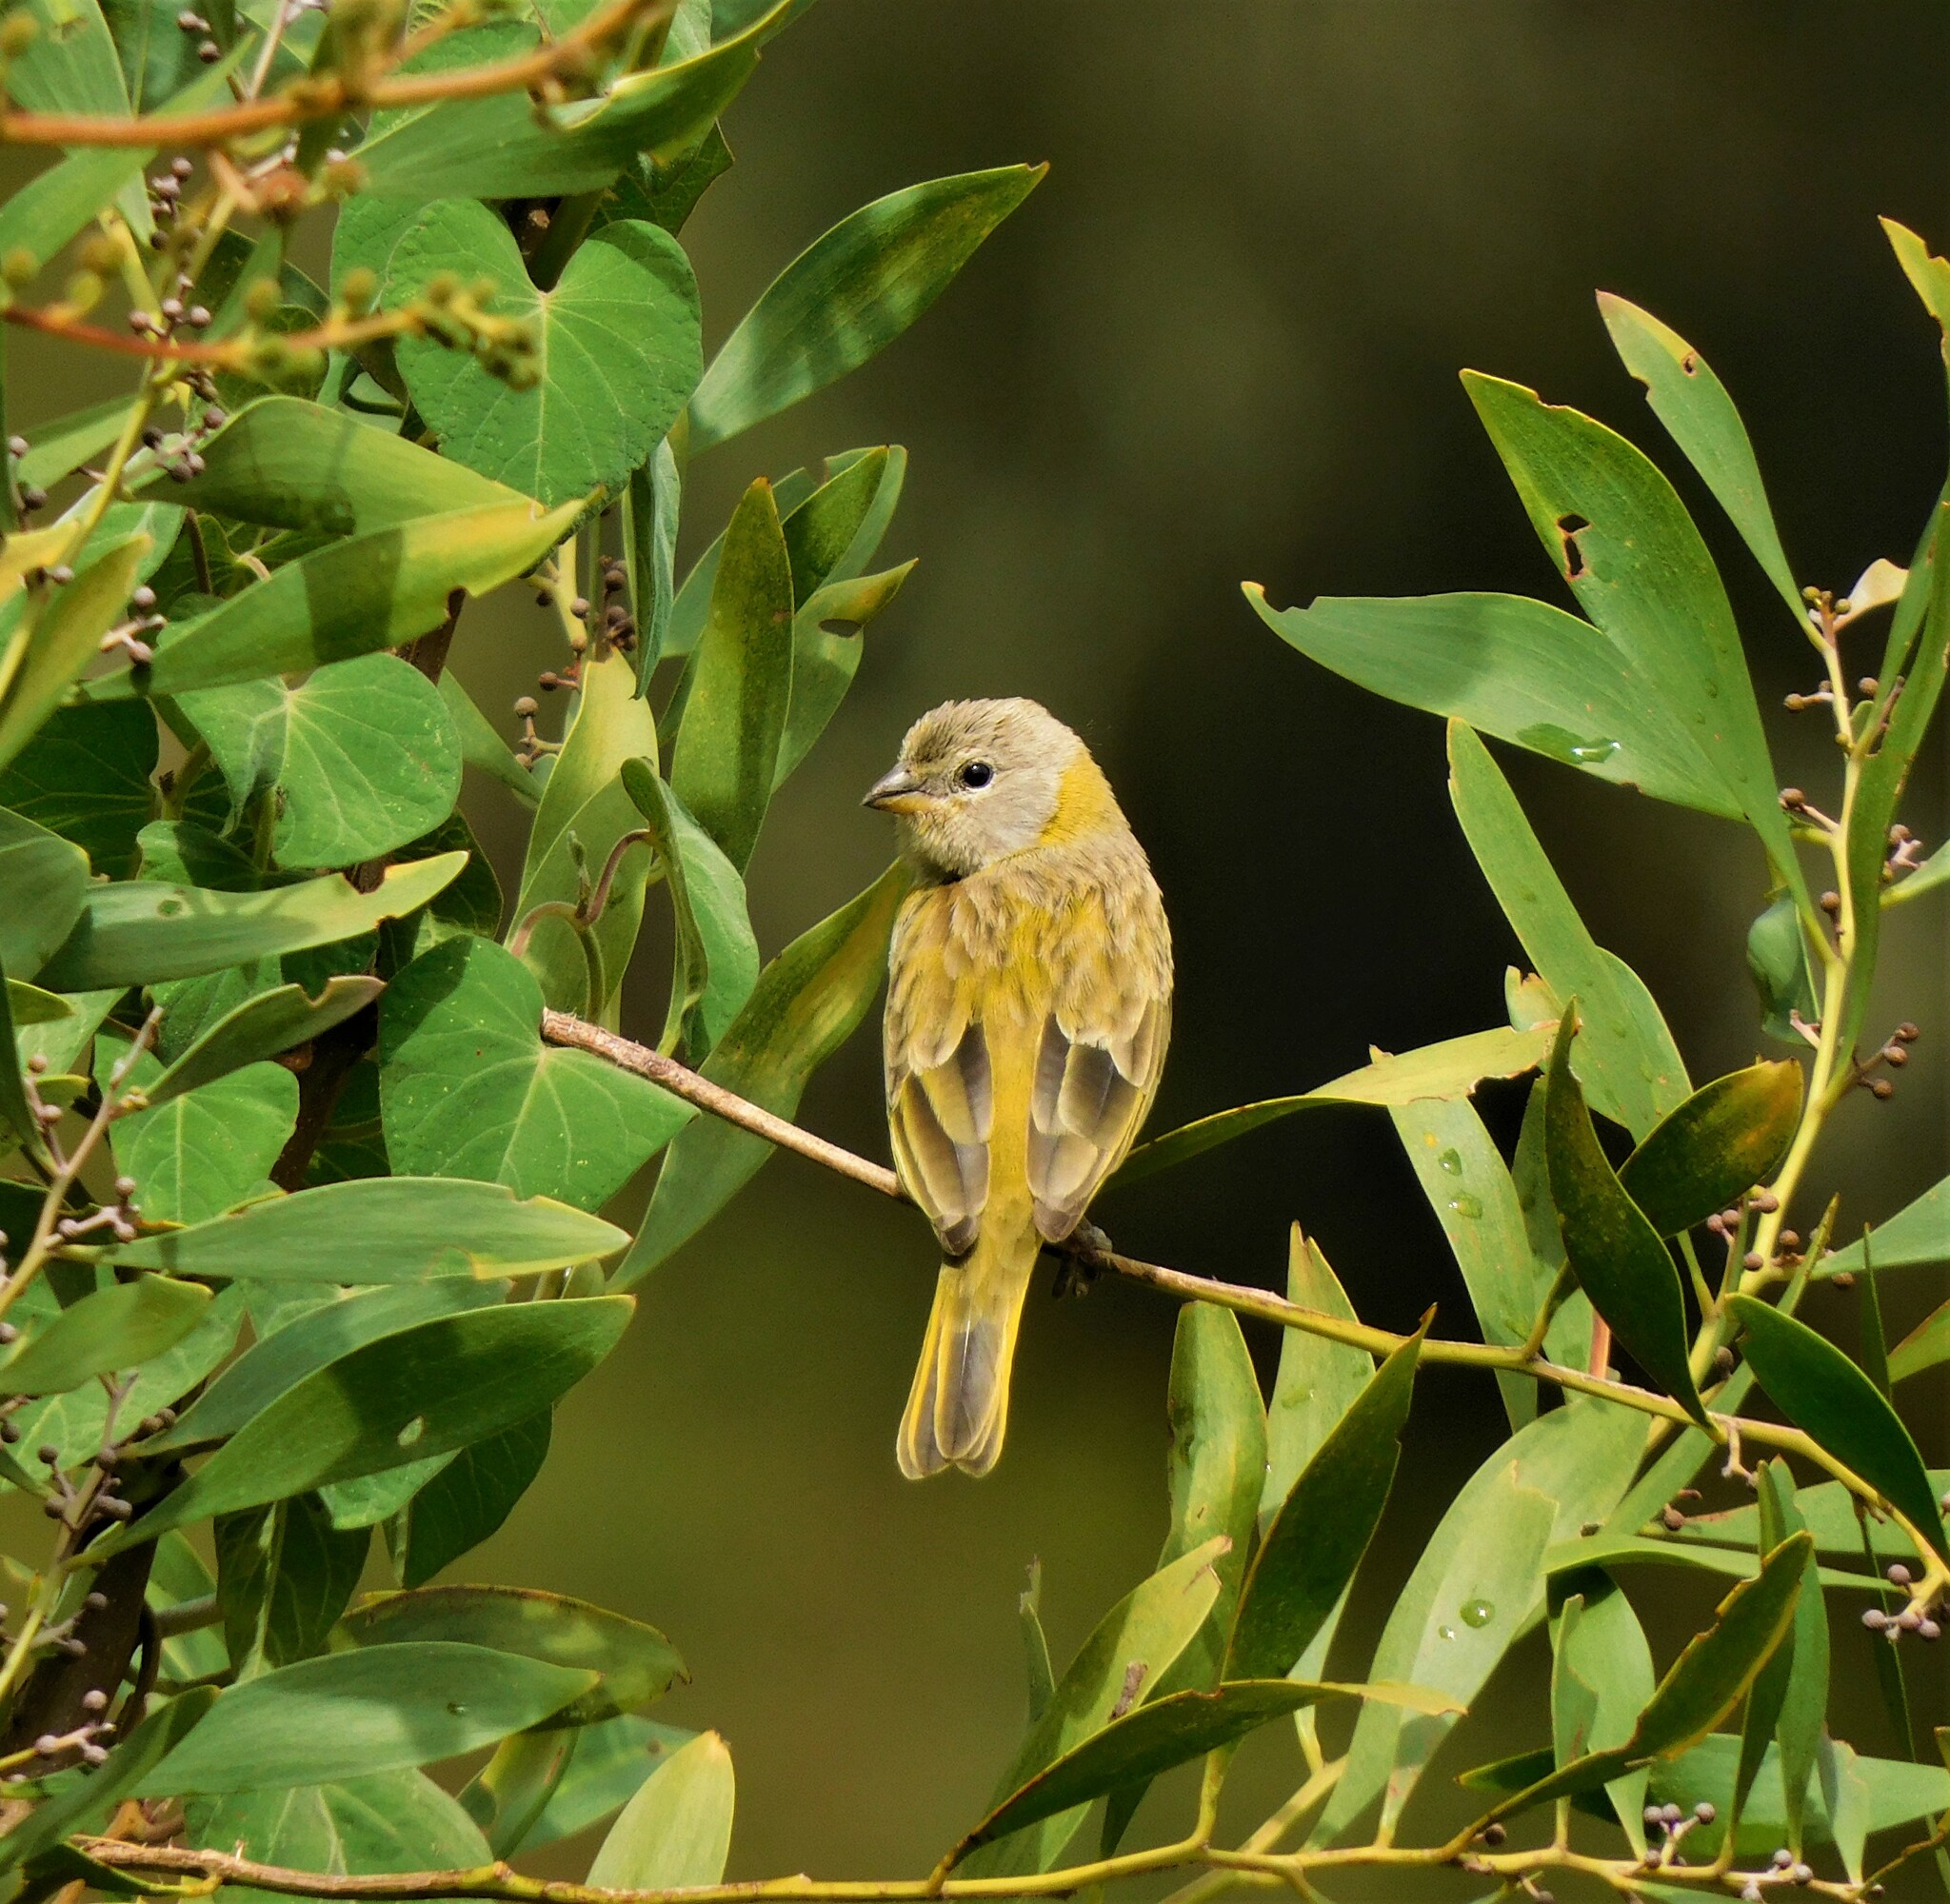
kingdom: Animalia
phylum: Chordata
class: Aves
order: Passeriformes
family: Thraupidae
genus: Sicalis
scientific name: Sicalis flaveola
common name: Saffron finch
